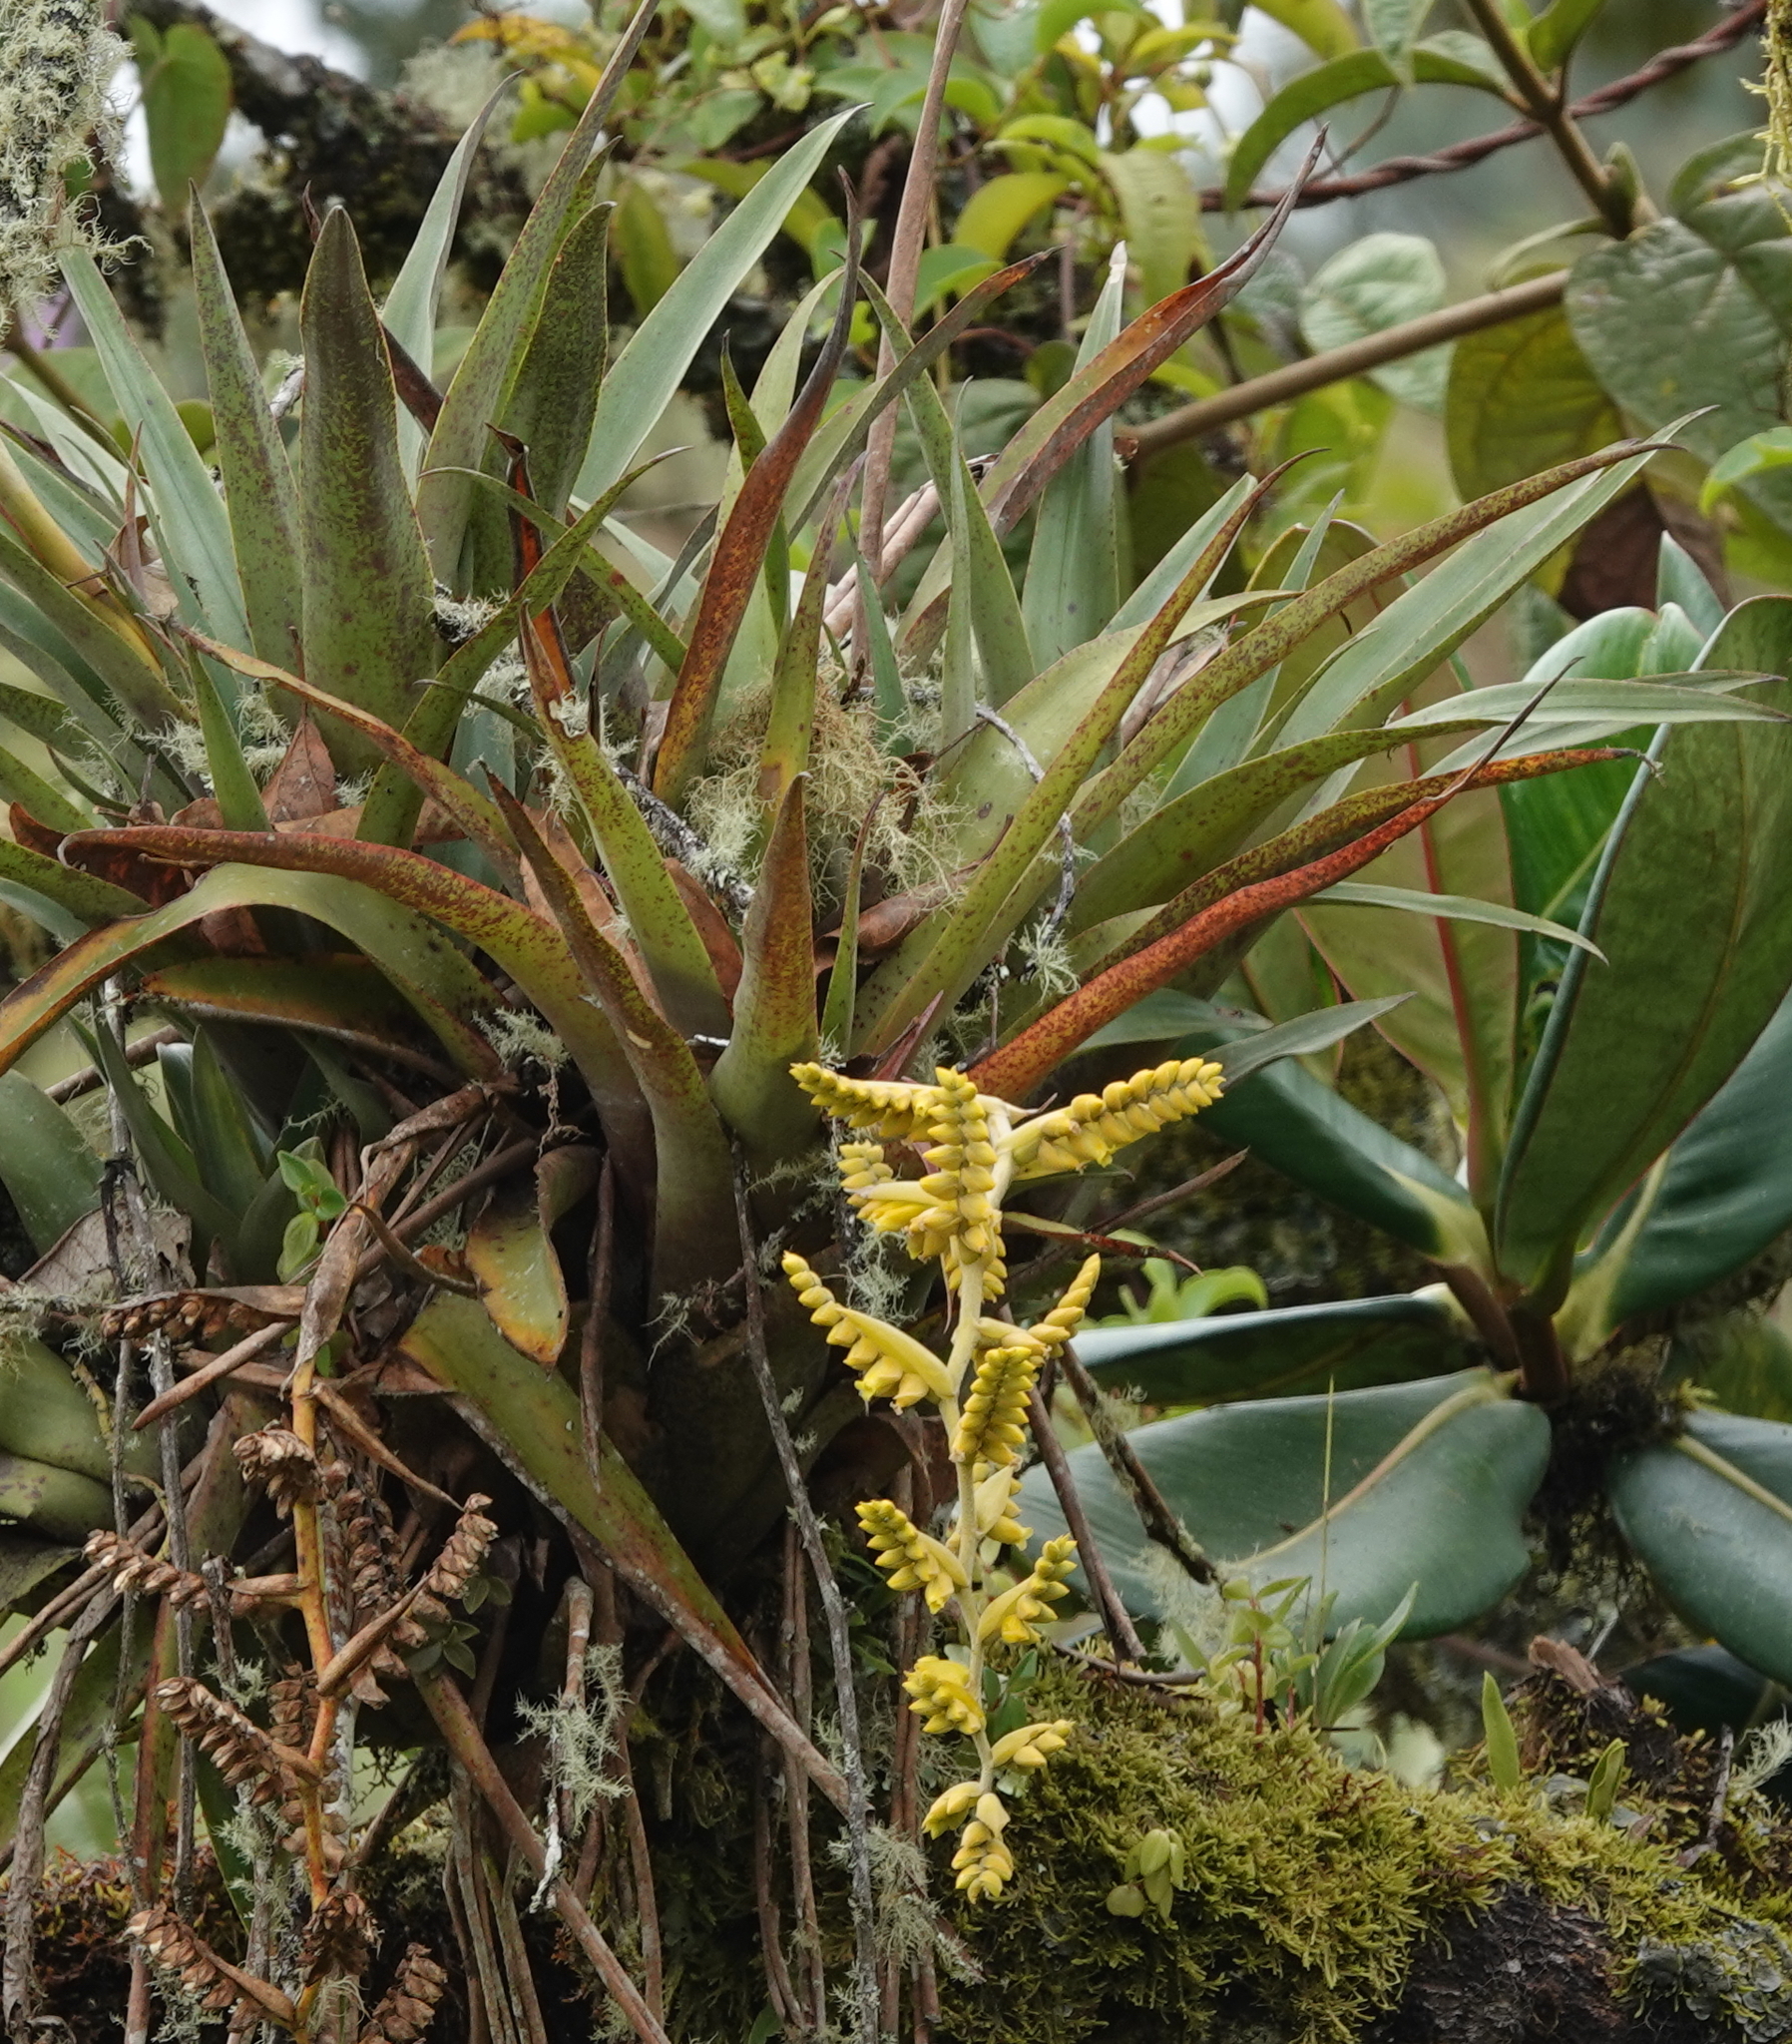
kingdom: Plantae
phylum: Tracheophyta
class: Liliopsida
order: Poales
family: Bromeliaceae
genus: Racinaea
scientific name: Racinaea tetrantha
